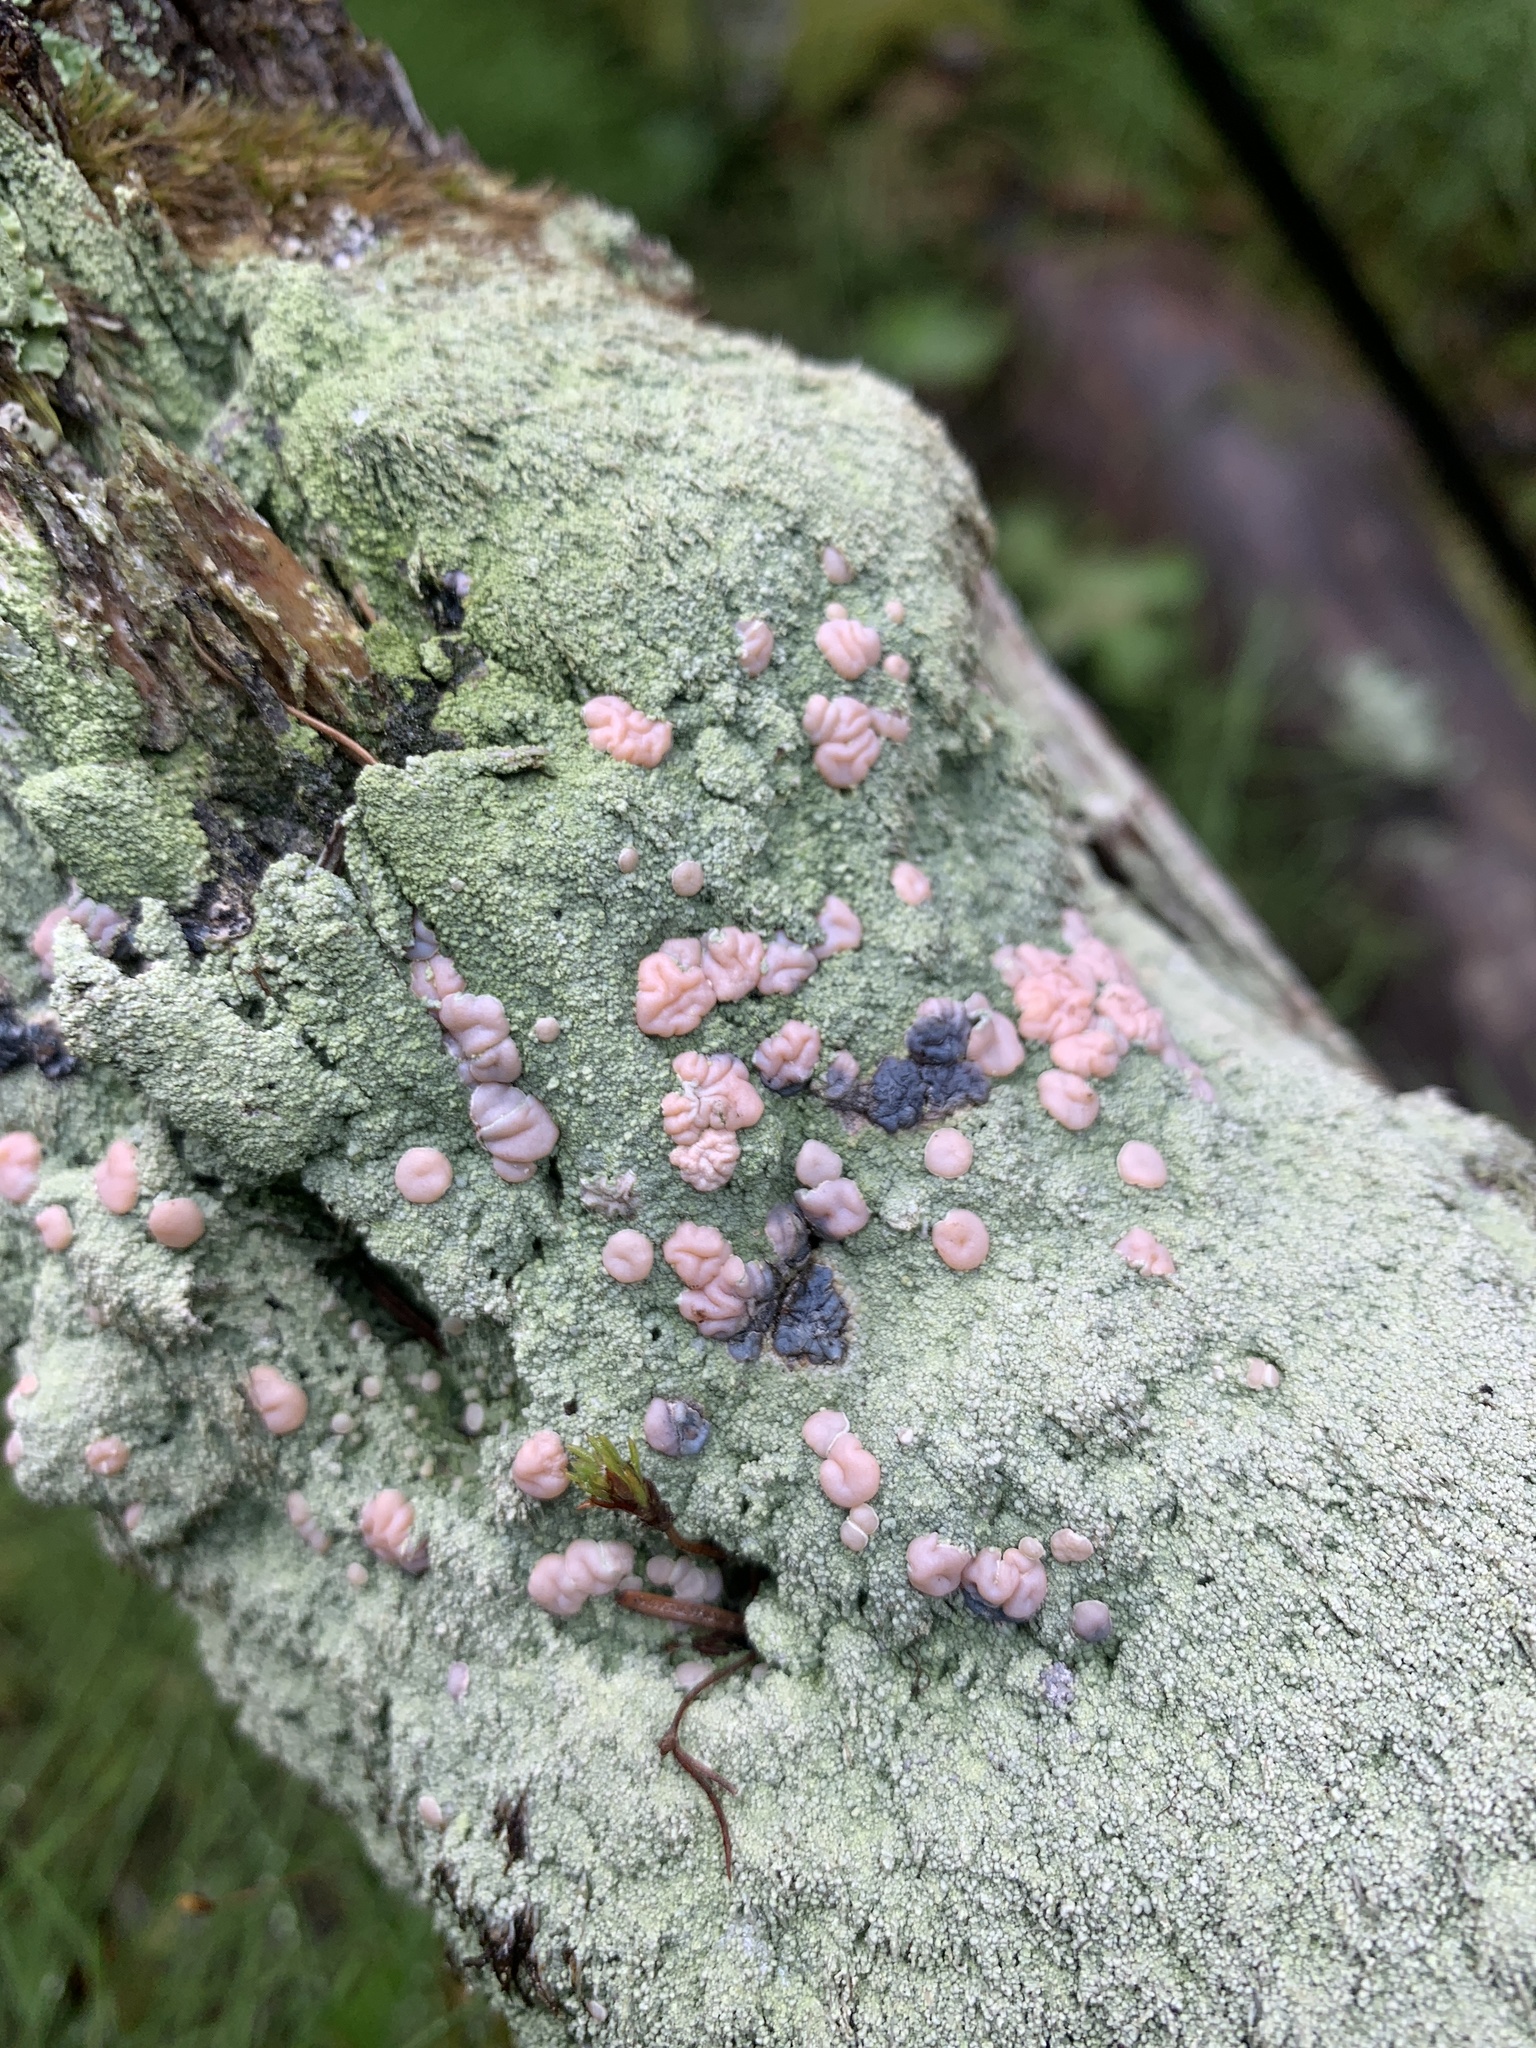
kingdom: Fungi
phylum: Ascomycota
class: Lecanoromycetes
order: Pertusariales
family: Icmadophilaceae
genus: Icmadophila
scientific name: Icmadophila ericetorum
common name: Candy lichen
